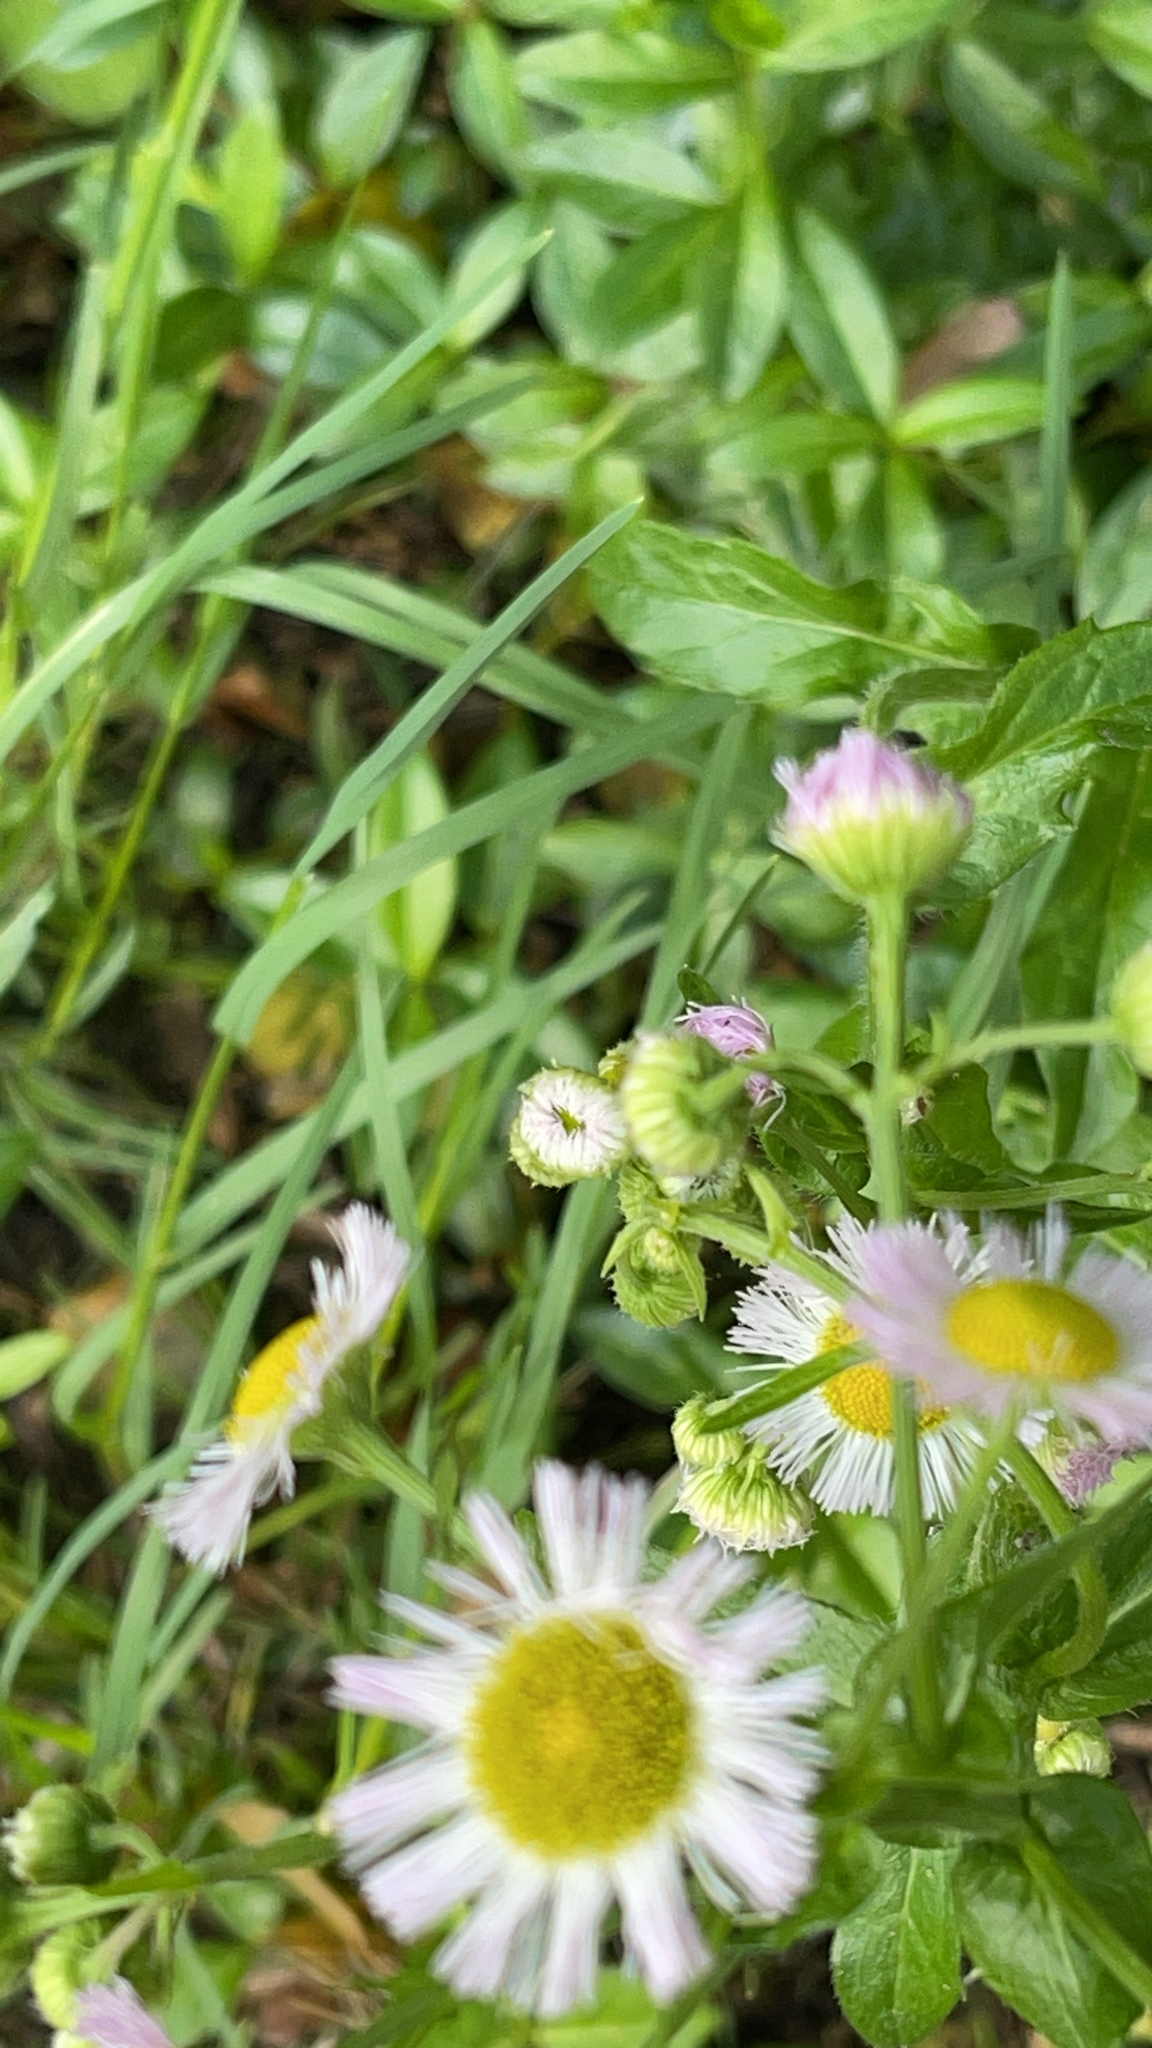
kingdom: Plantae
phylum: Tracheophyta
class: Magnoliopsida
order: Asterales
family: Asteraceae
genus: Erigeron
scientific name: Erigeron philadelphicus
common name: Robin's-plantain
